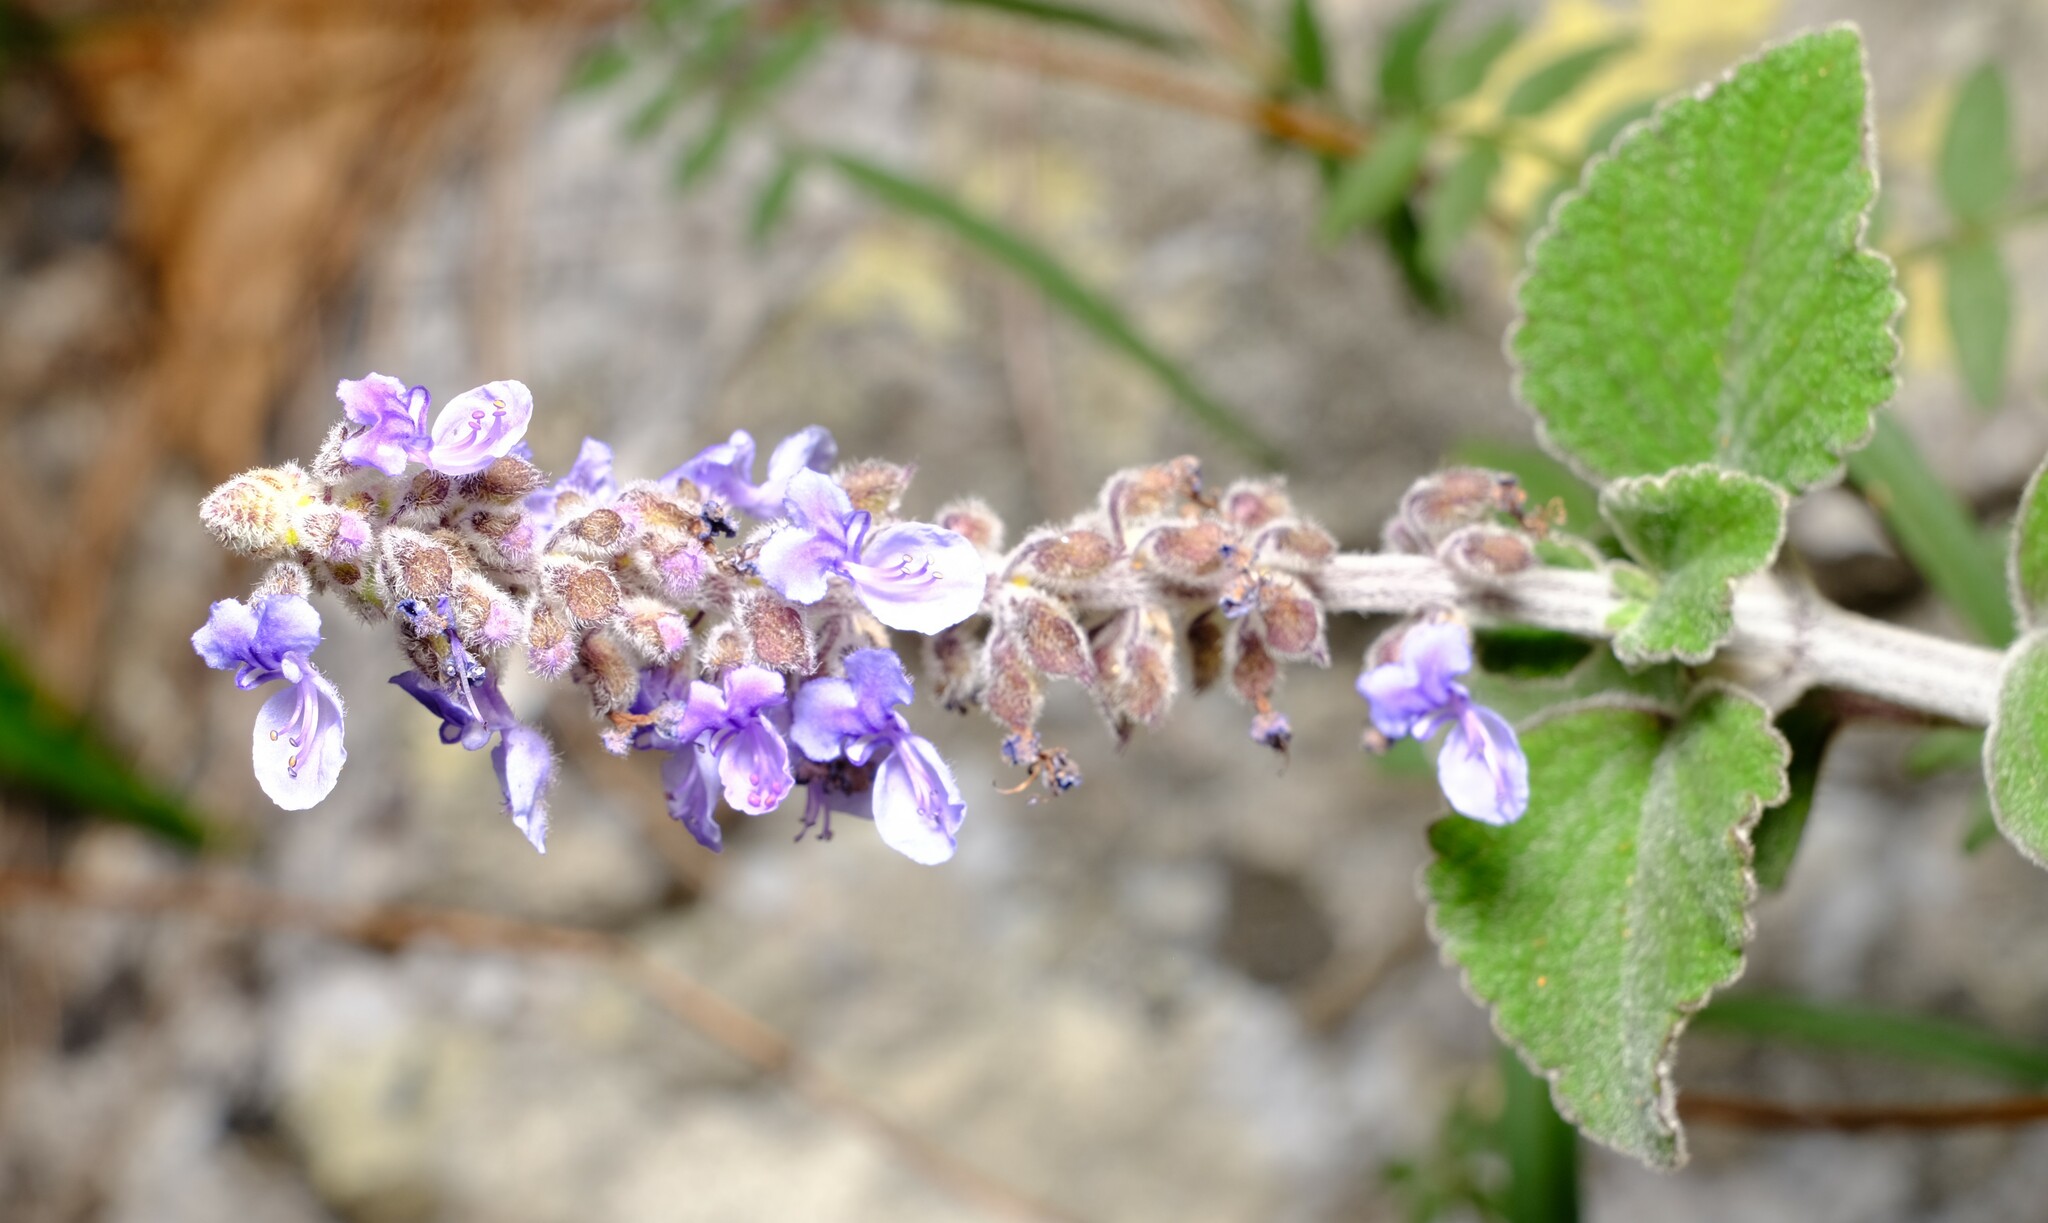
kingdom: Plantae
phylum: Tracheophyta
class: Magnoliopsida
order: Lamiales
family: Lamiaceae
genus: Coleus
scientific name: Coleus australis
